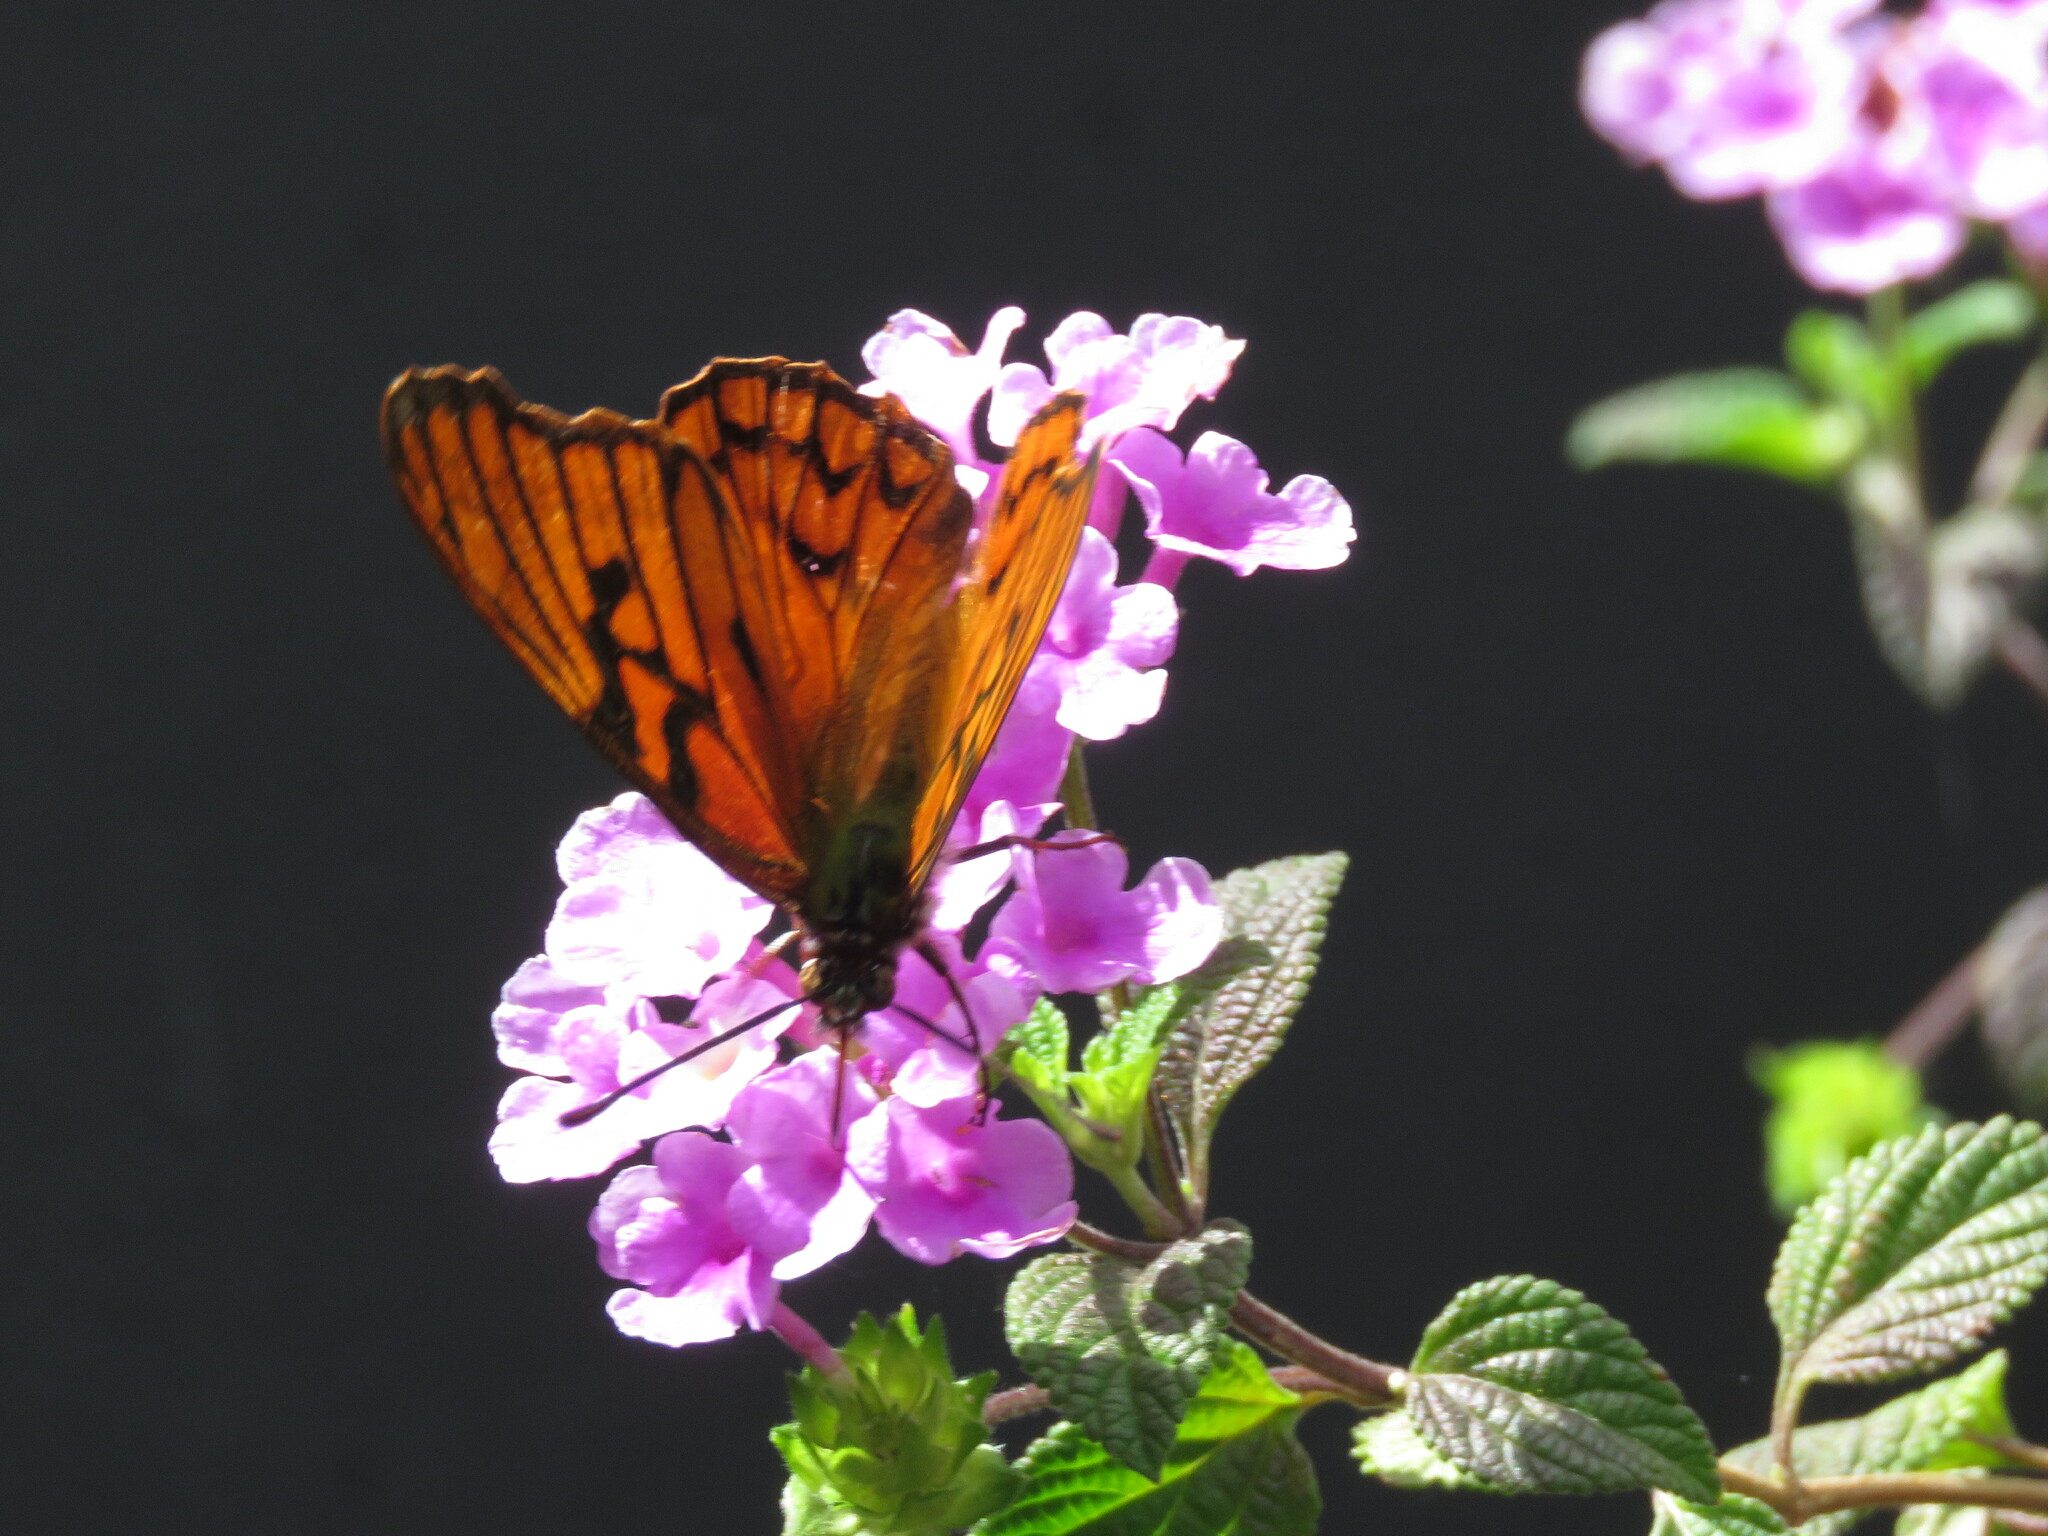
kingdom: Animalia
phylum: Arthropoda
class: Insecta
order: Lepidoptera
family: Nymphalidae
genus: Dione
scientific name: Dione glycera
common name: Andean silverspot
